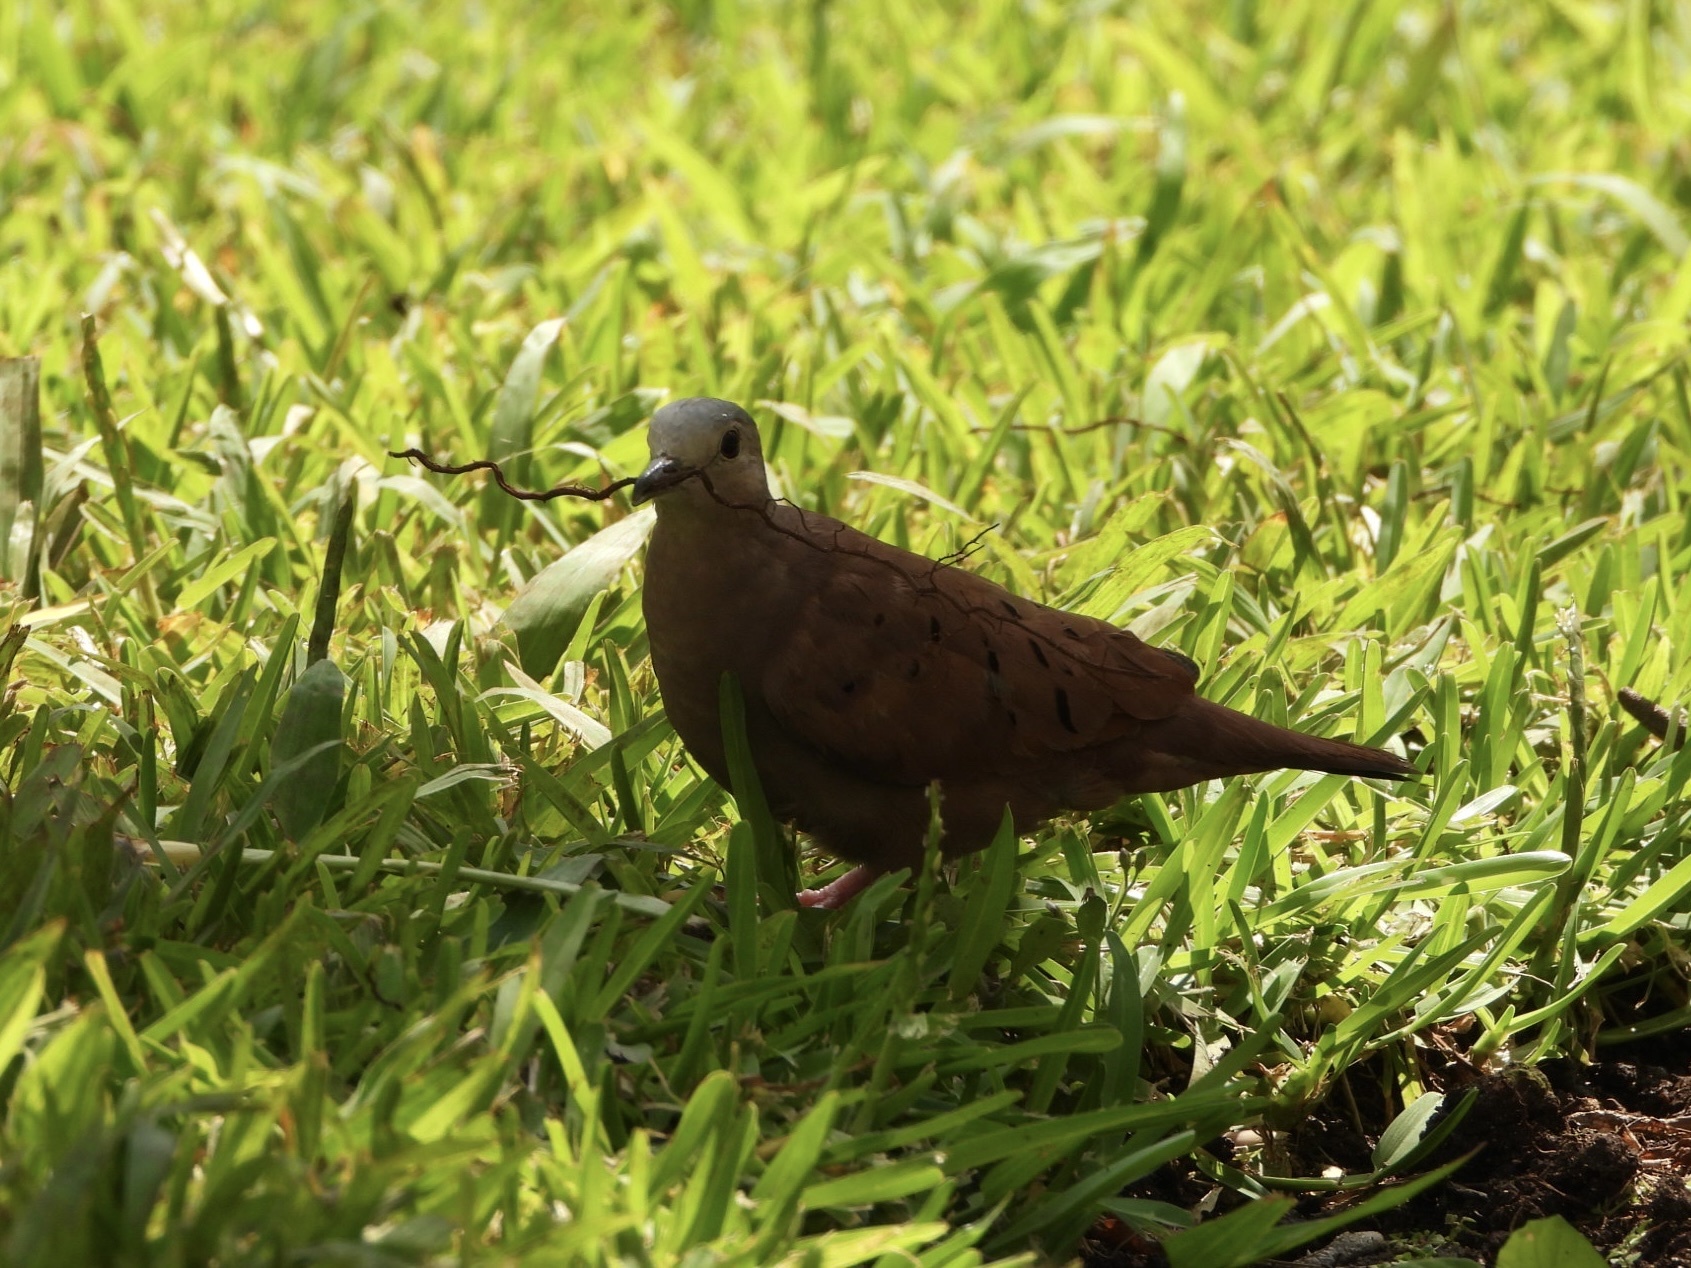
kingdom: Animalia
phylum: Chordata
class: Aves
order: Columbiformes
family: Columbidae
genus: Columbina
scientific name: Columbina talpacoti
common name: Ruddy ground dove
